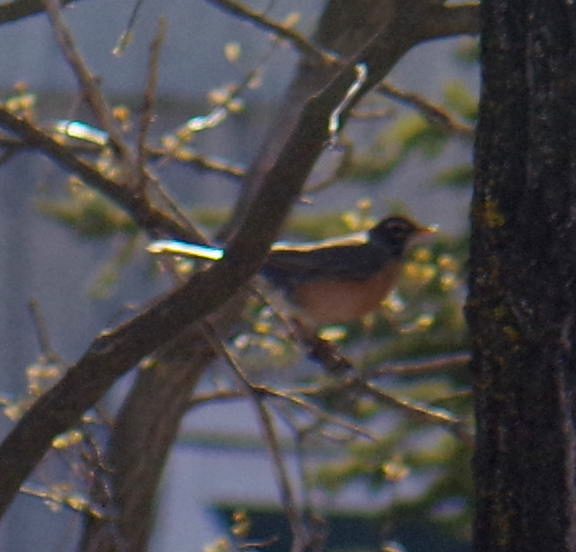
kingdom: Animalia
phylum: Chordata
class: Aves
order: Passeriformes
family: Turdidae
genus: Turdus
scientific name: Turdus migratorius
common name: American robin
